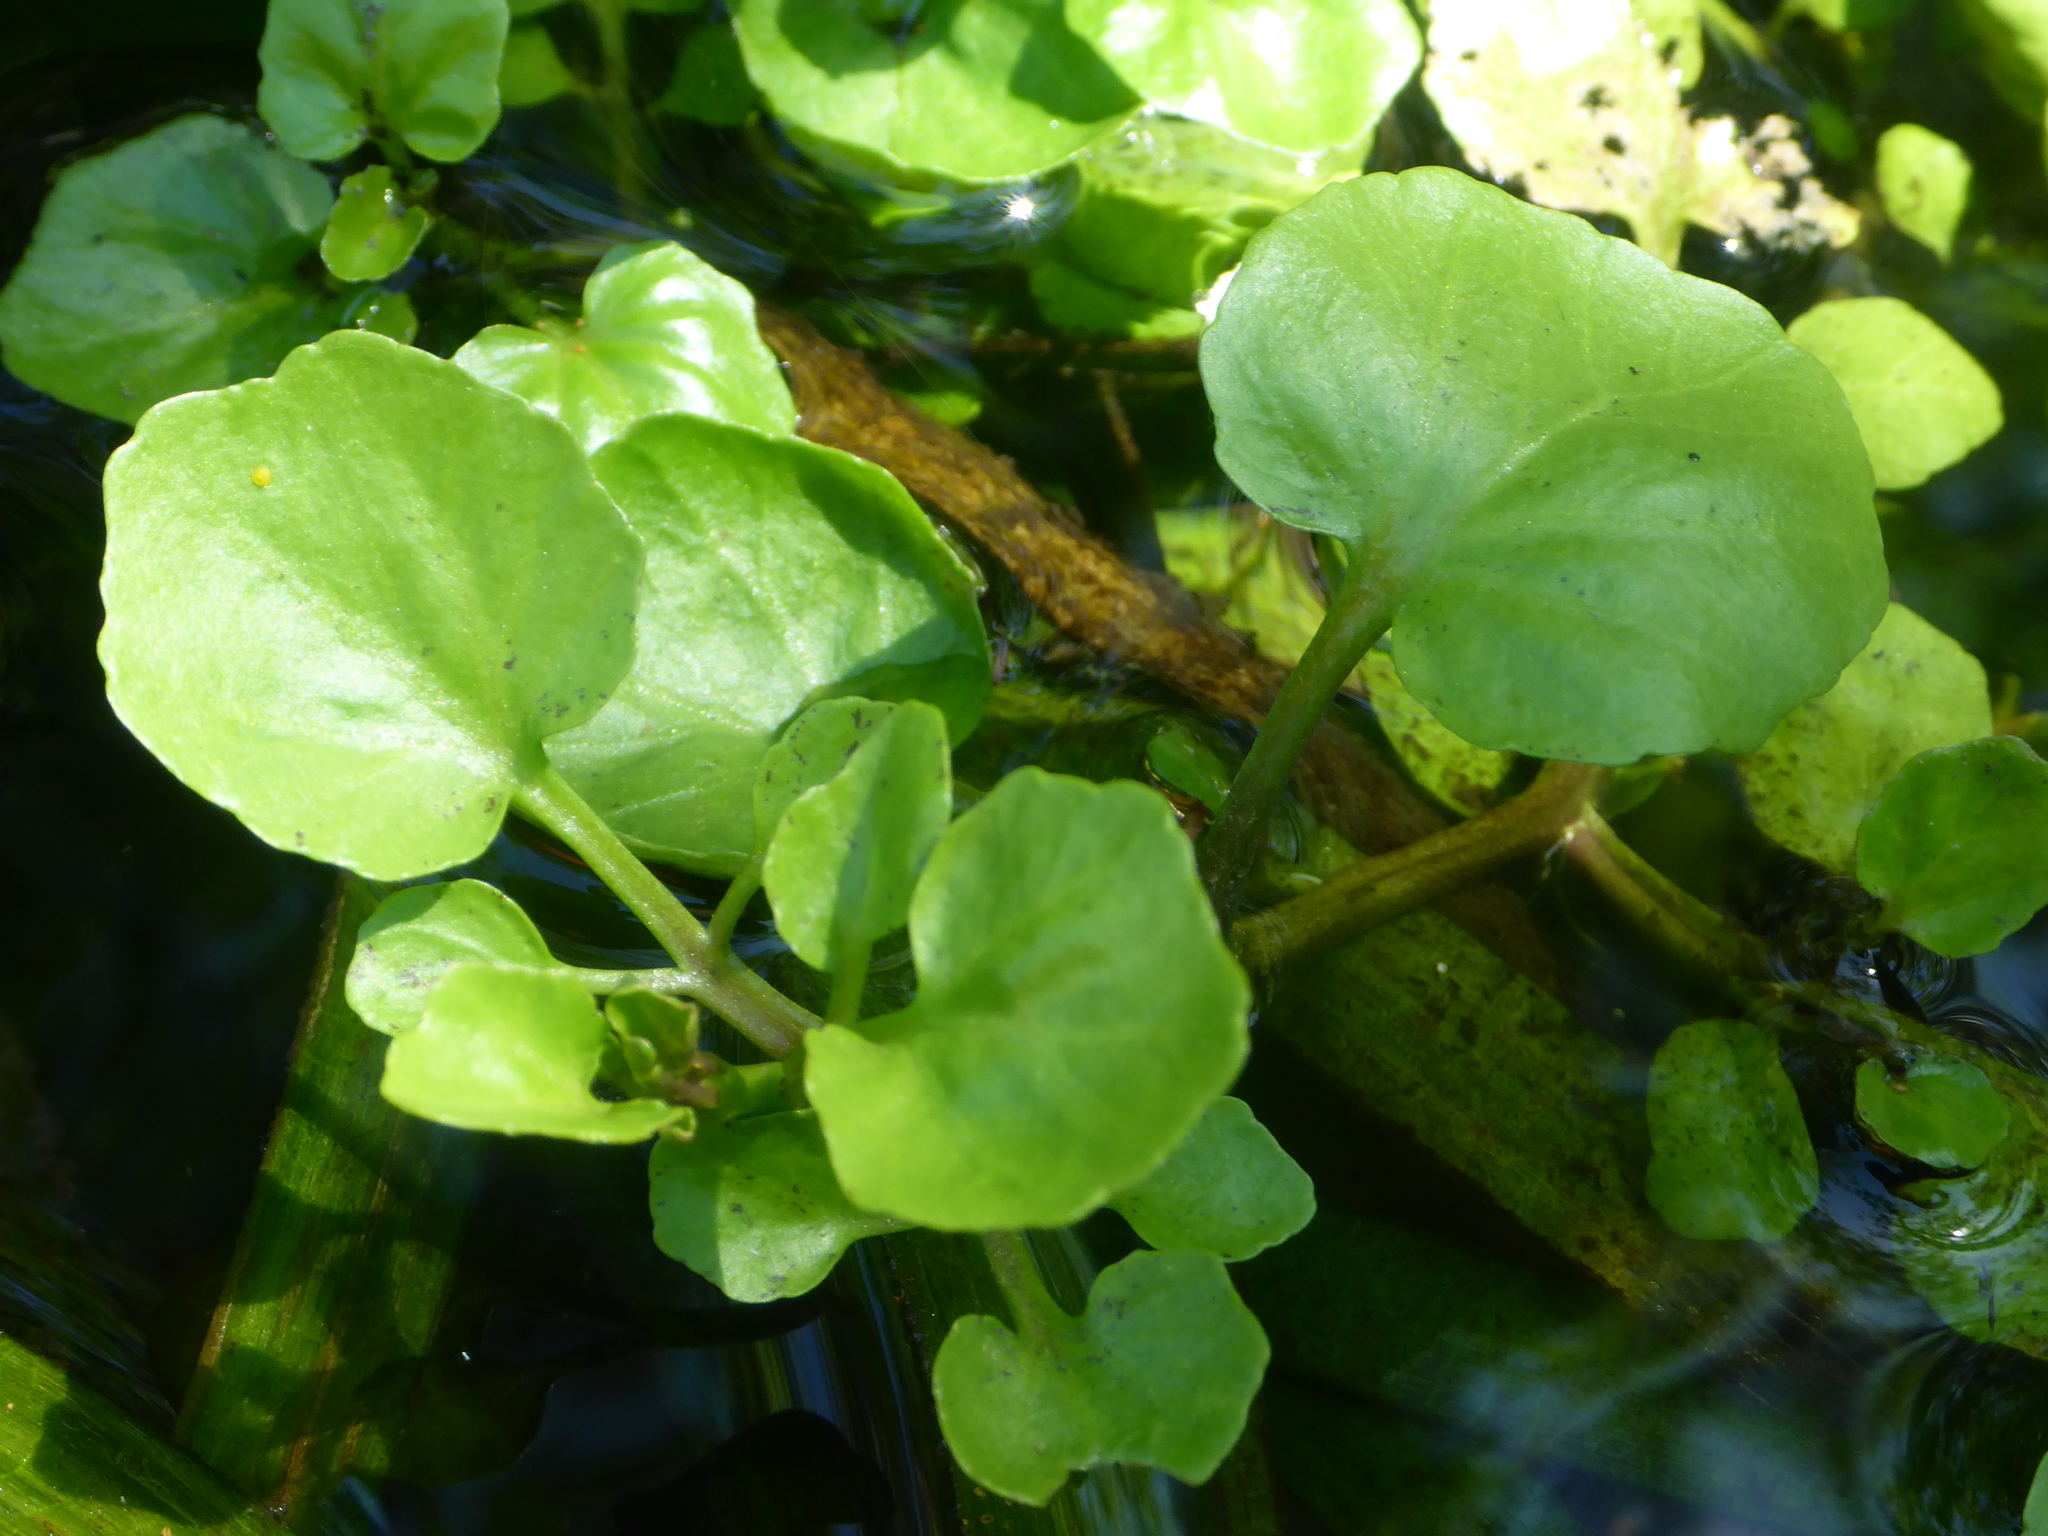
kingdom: Plantae
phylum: Tracheophyta
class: Magnoliopsida
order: Brassicales
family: Brassicaceae
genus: Nasturtium
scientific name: Nasturtium officinale
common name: Watercress
